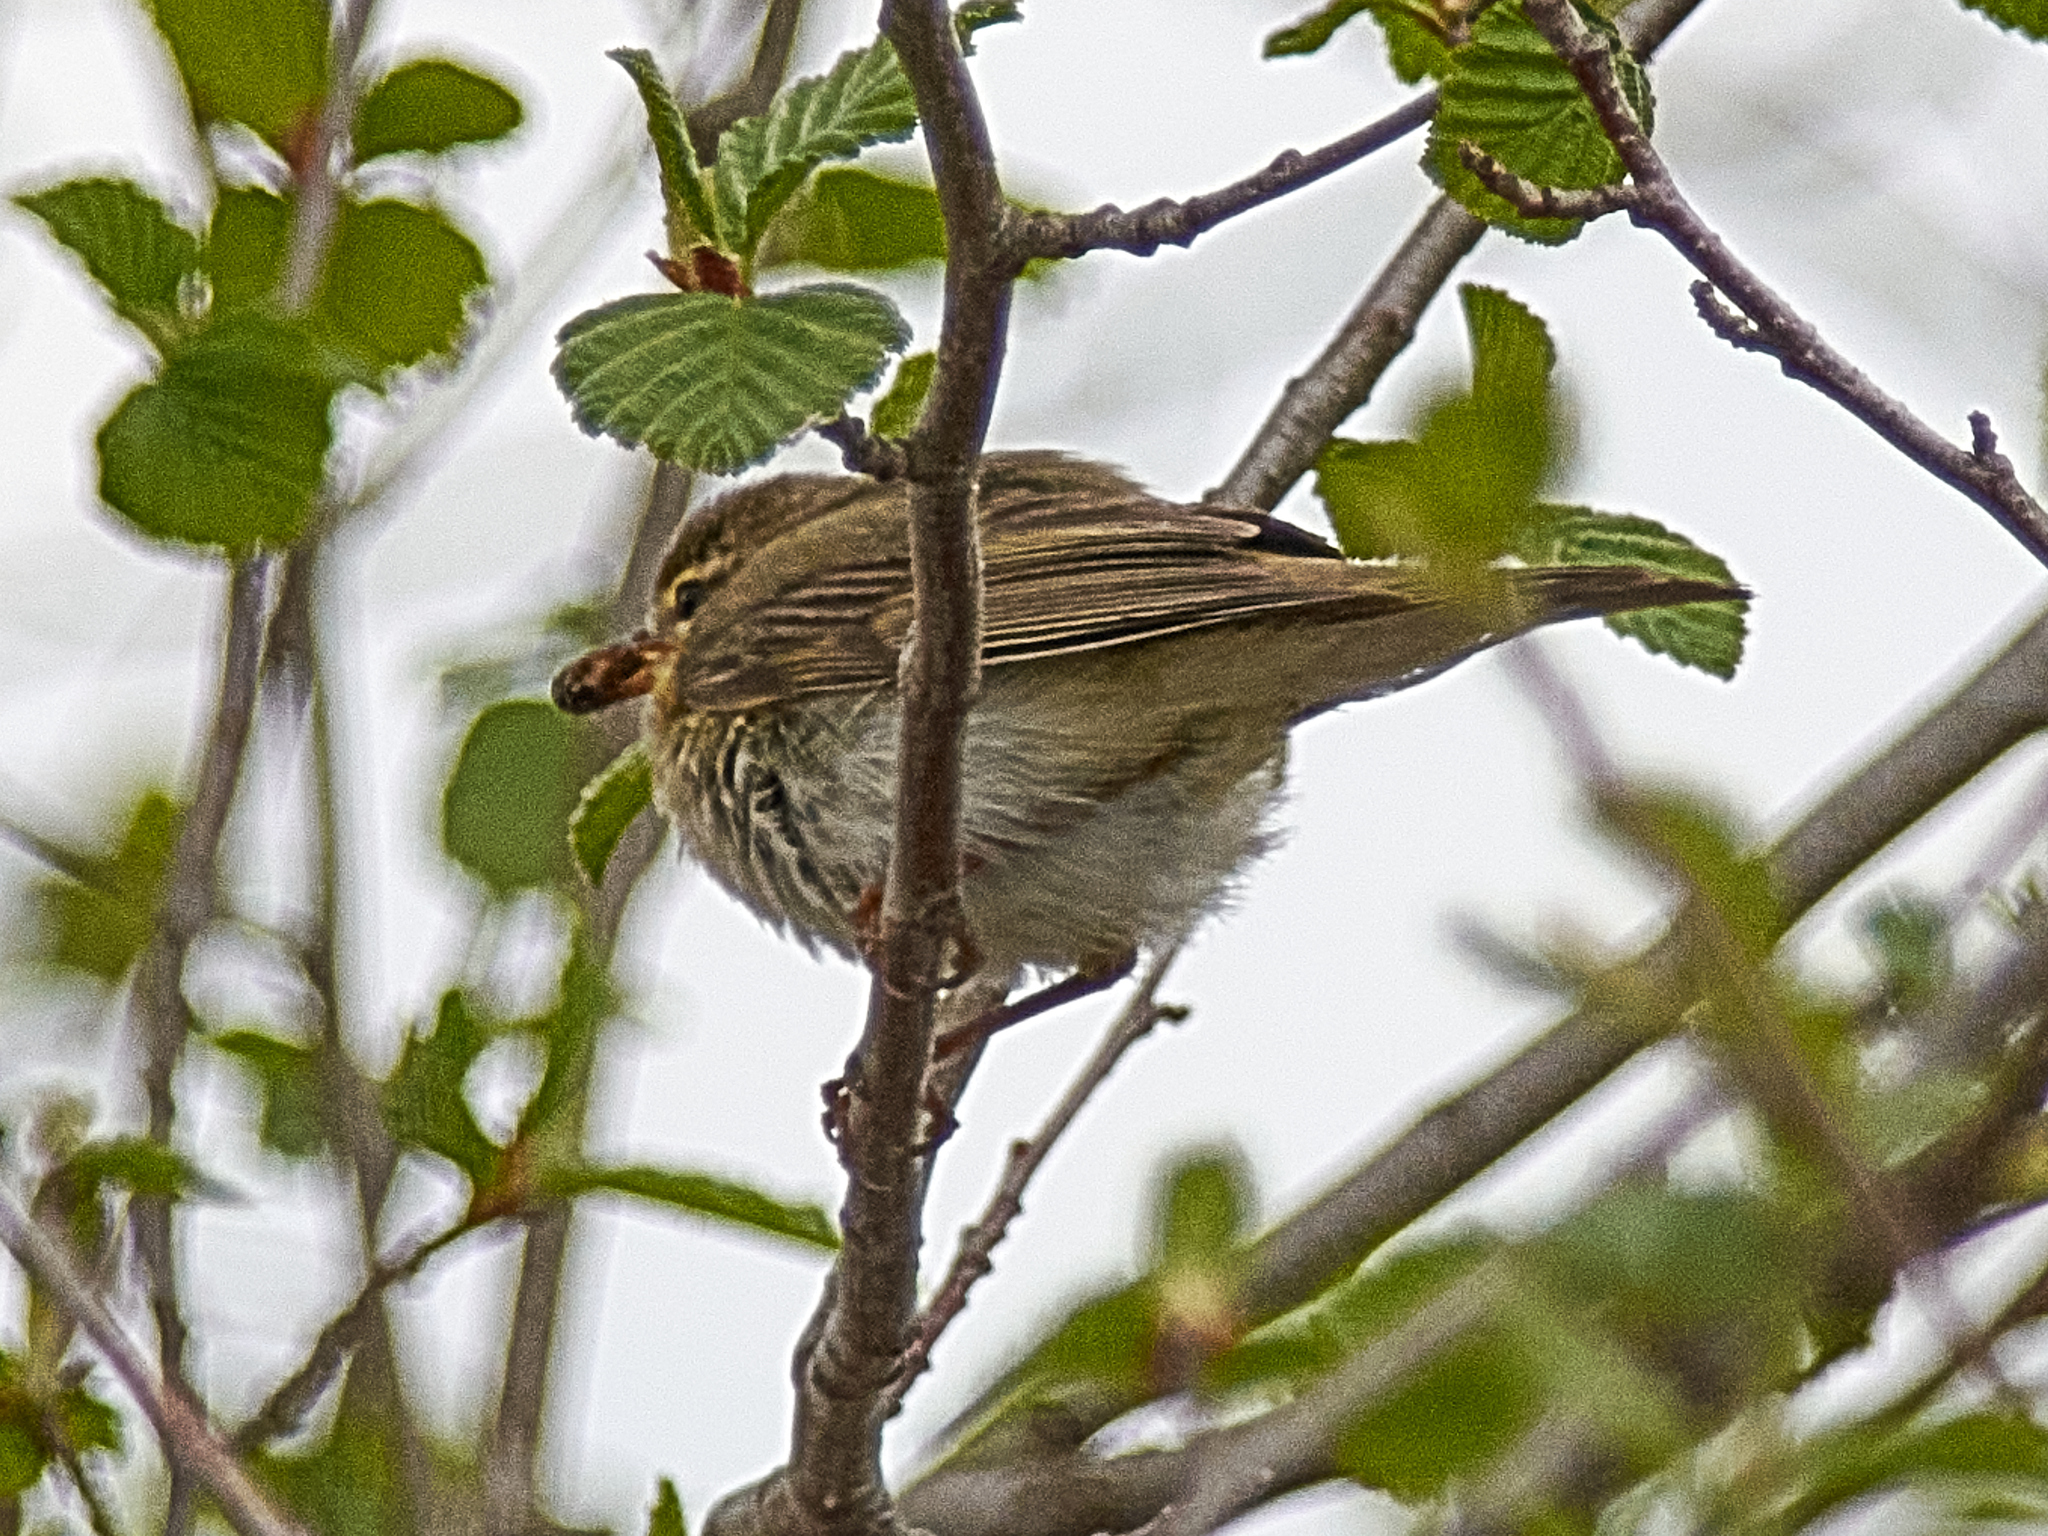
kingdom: Animalia
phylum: Chordata
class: Aves
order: Passeriformes
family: Phylloscopidae
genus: Phylloscopus
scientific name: Phylloscopus trochilus
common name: Willow warbler
